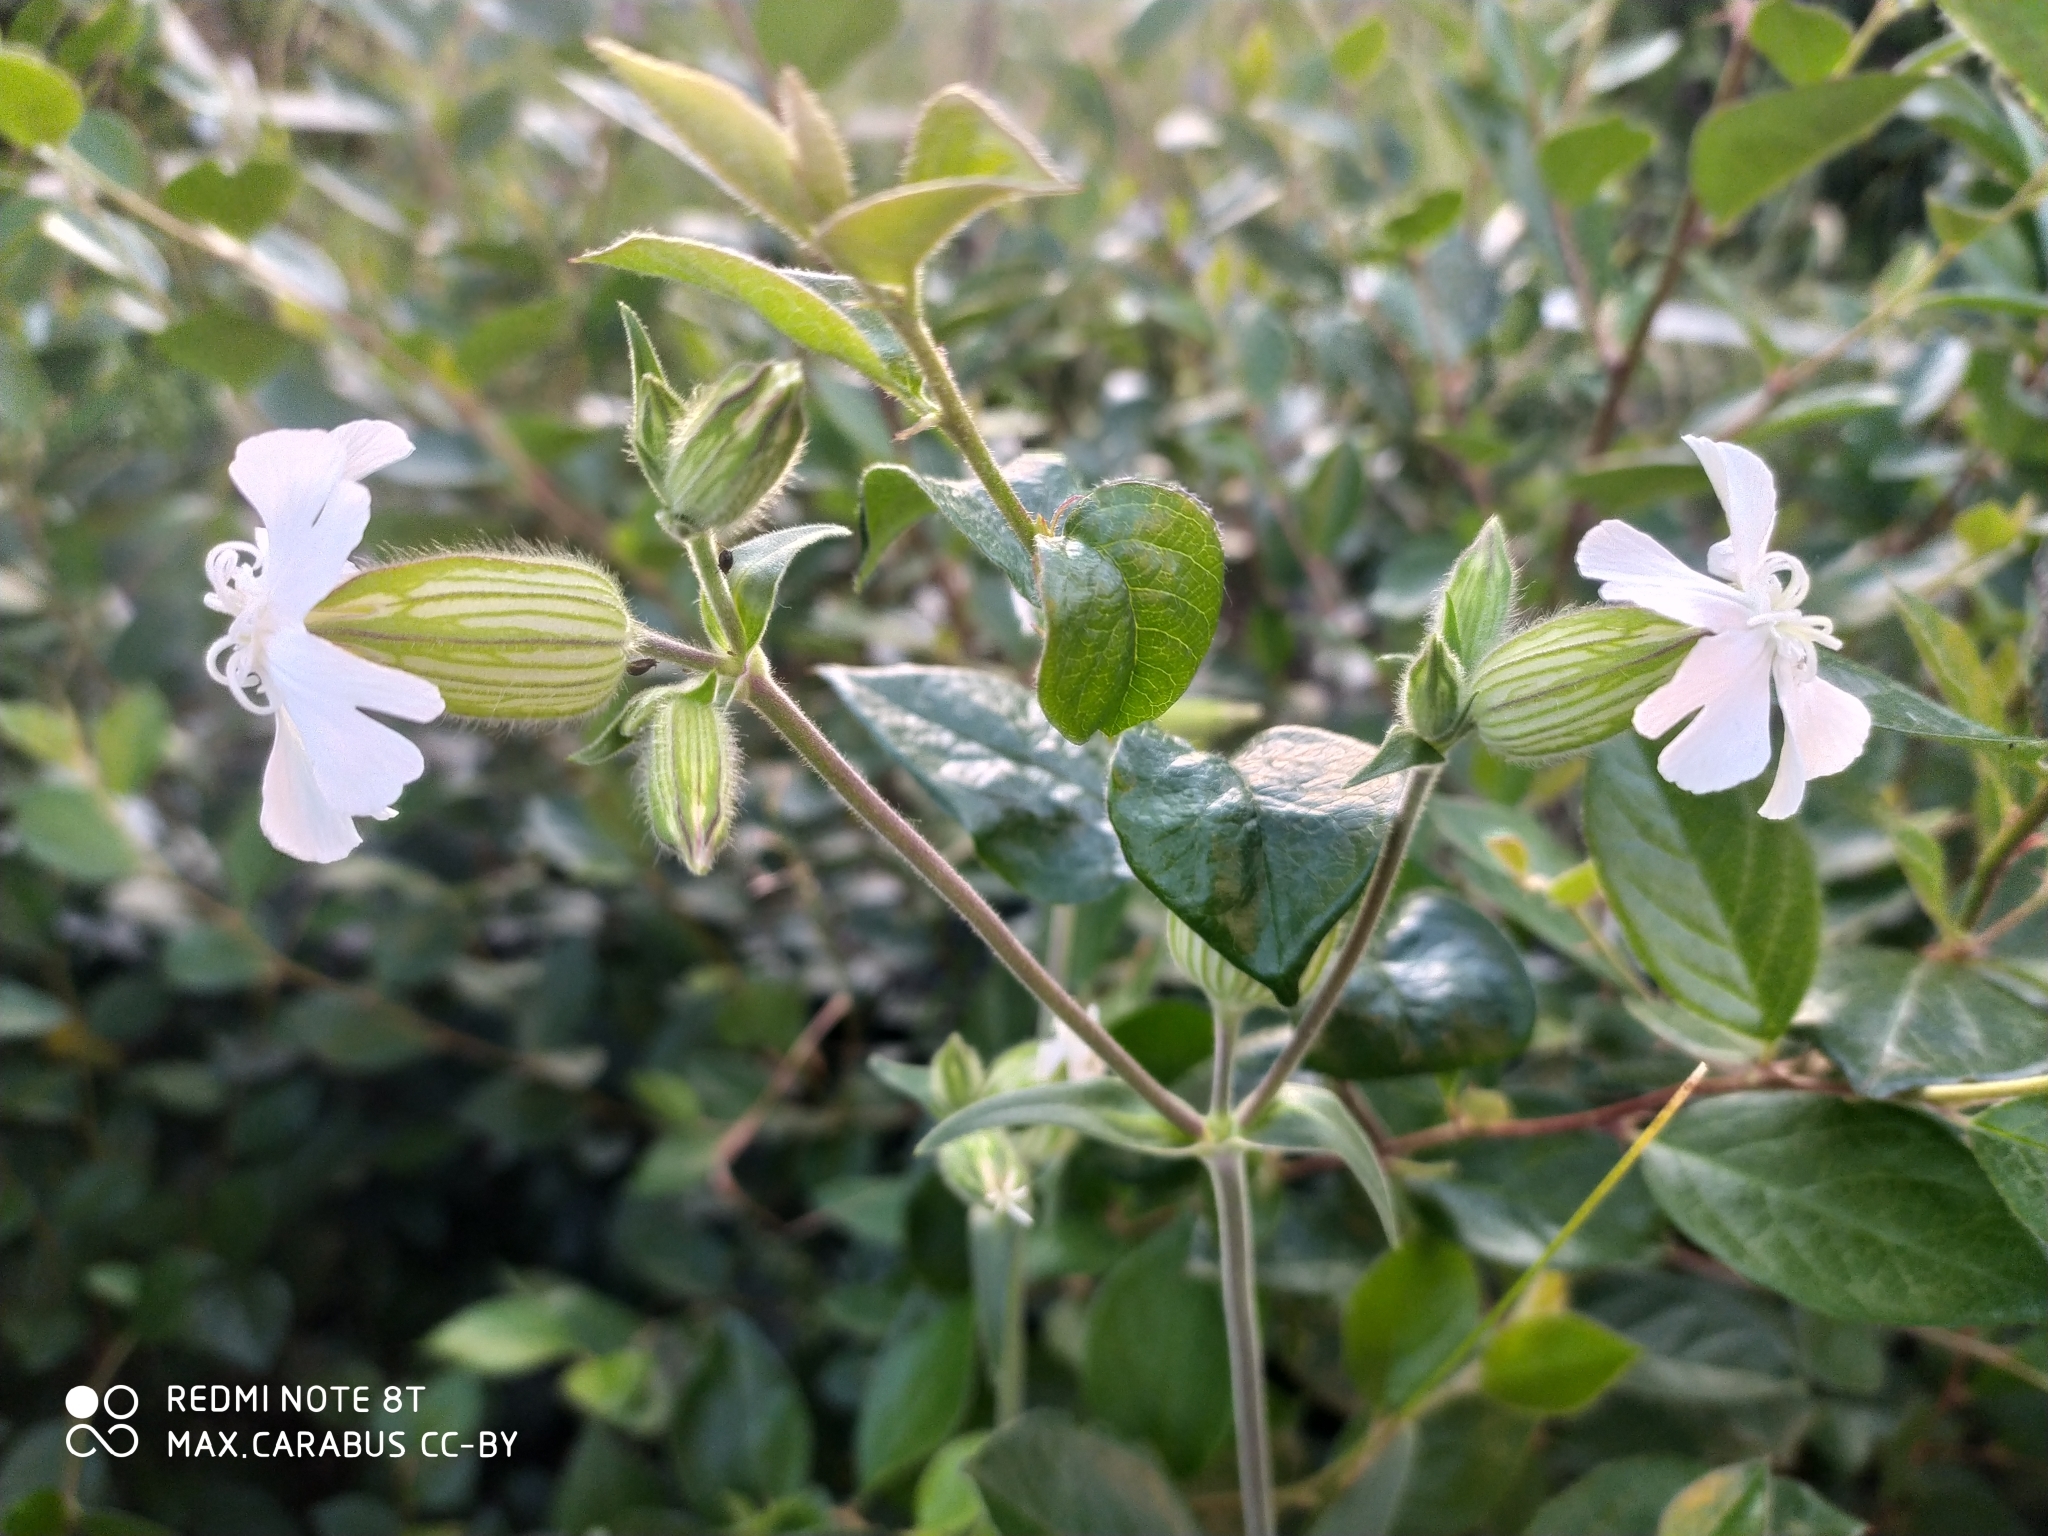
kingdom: Plantae
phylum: Tracheophyta
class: Magnoliopsida
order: Caryophyllales
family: Caryophyllaceae
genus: Silene
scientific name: Silene latifolia
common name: White campion
